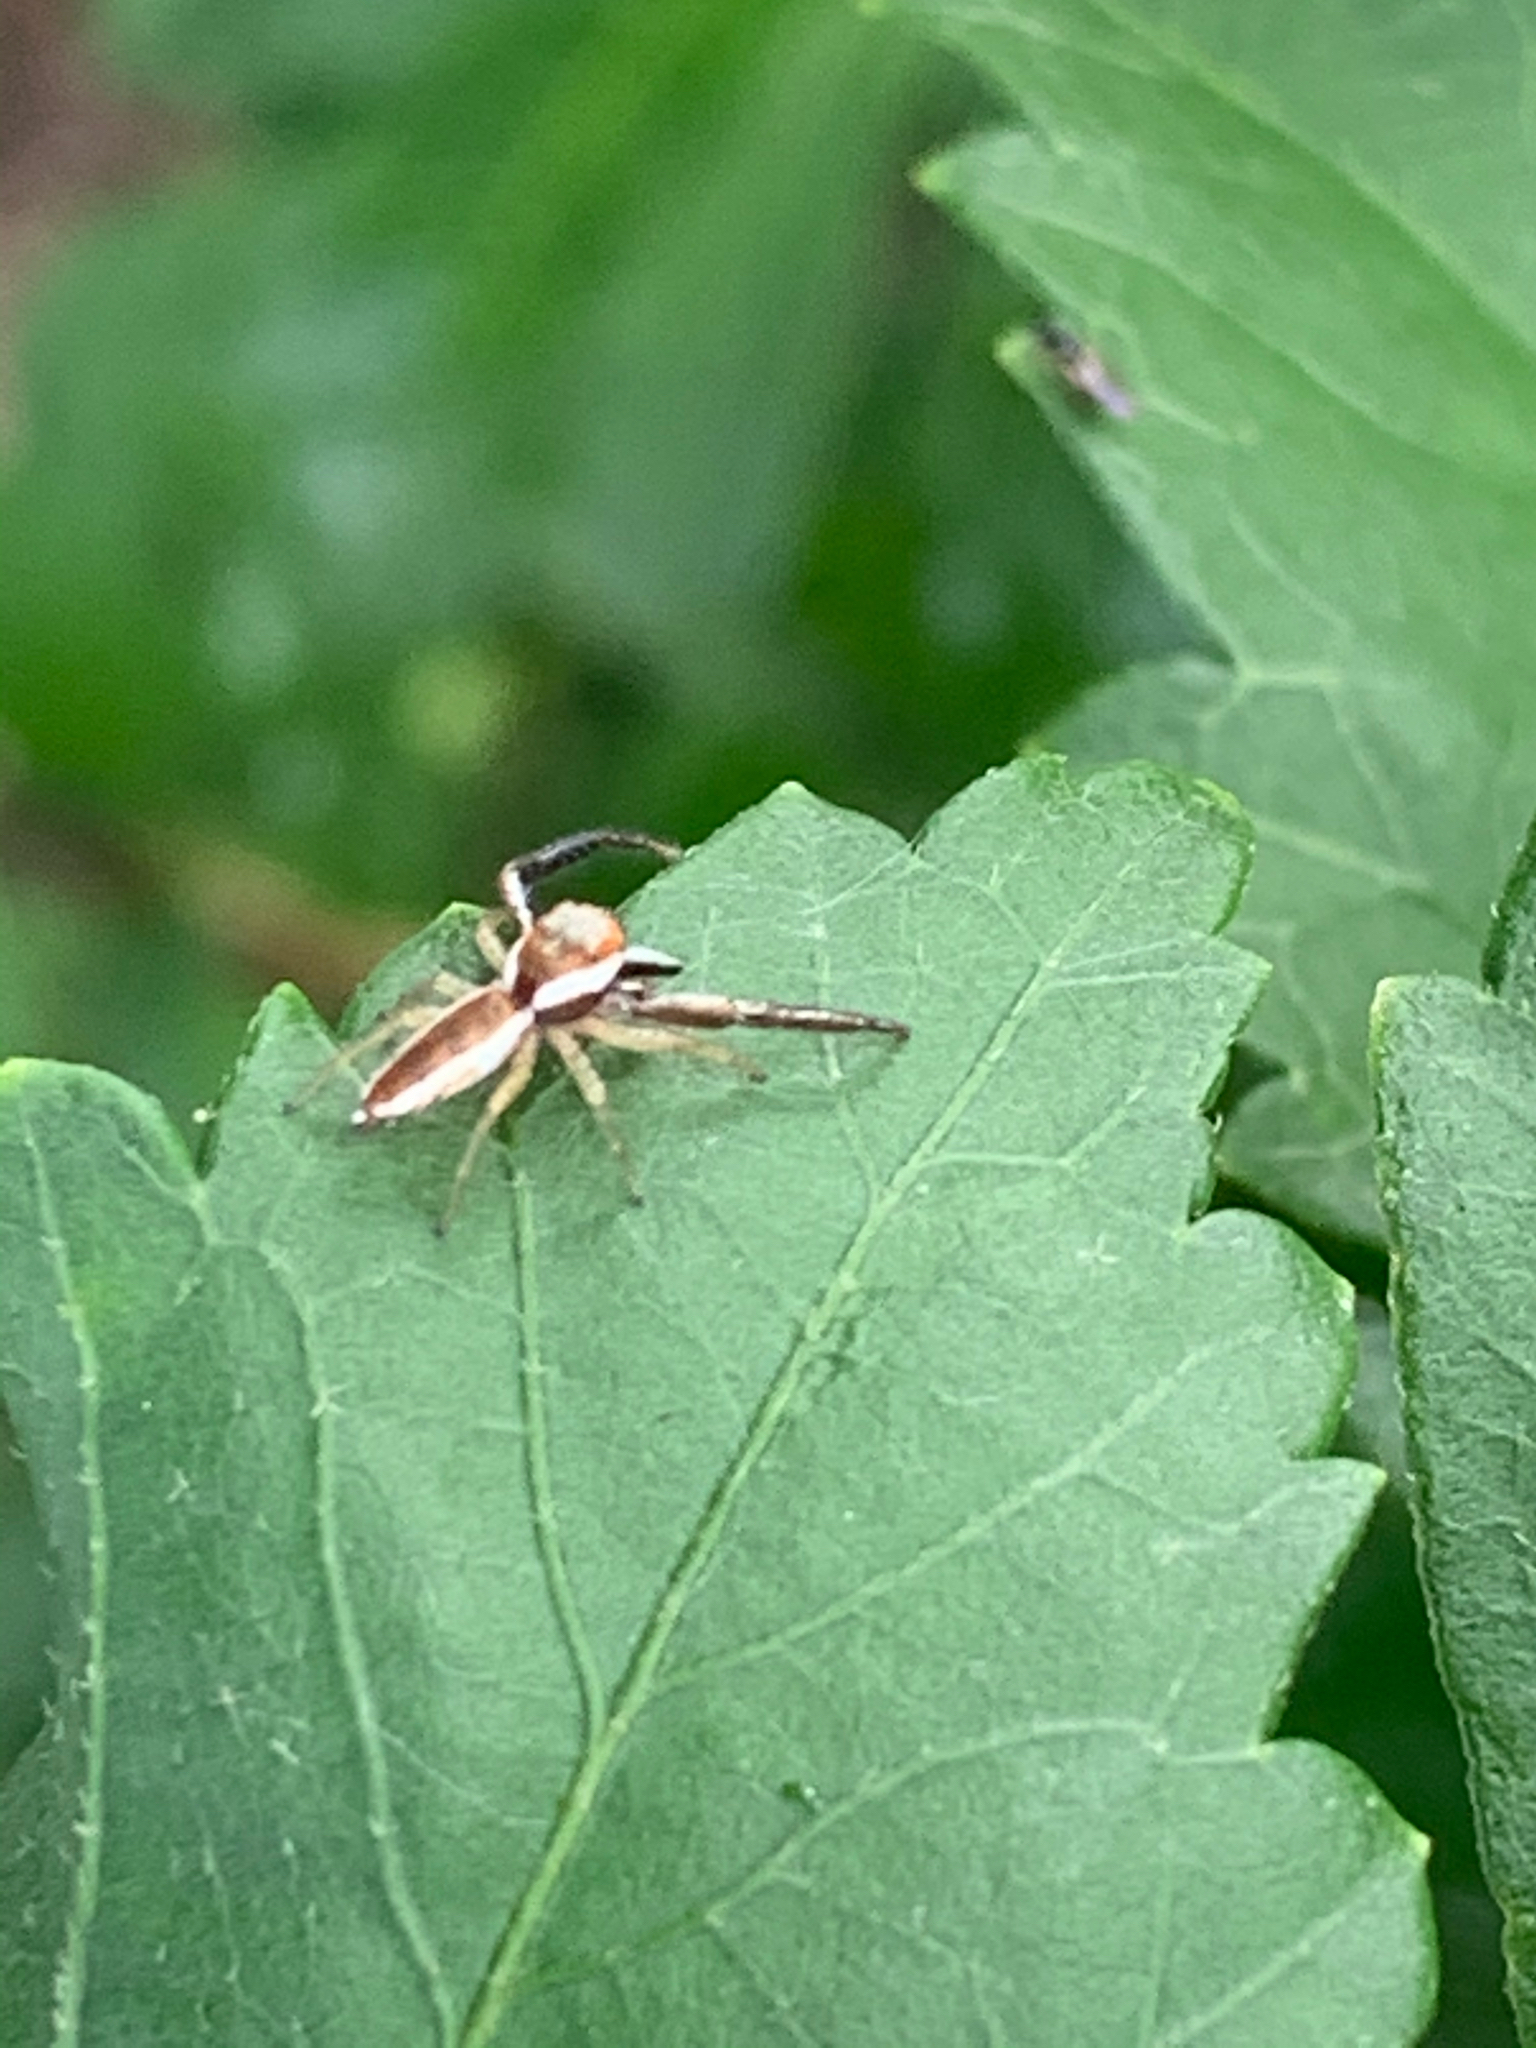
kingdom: Animalia
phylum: Arthropoda
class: Arachnida
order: Araneae
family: Salticidae
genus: Hentzia
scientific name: Hentzia palmarum
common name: Common hentz jumping spider
